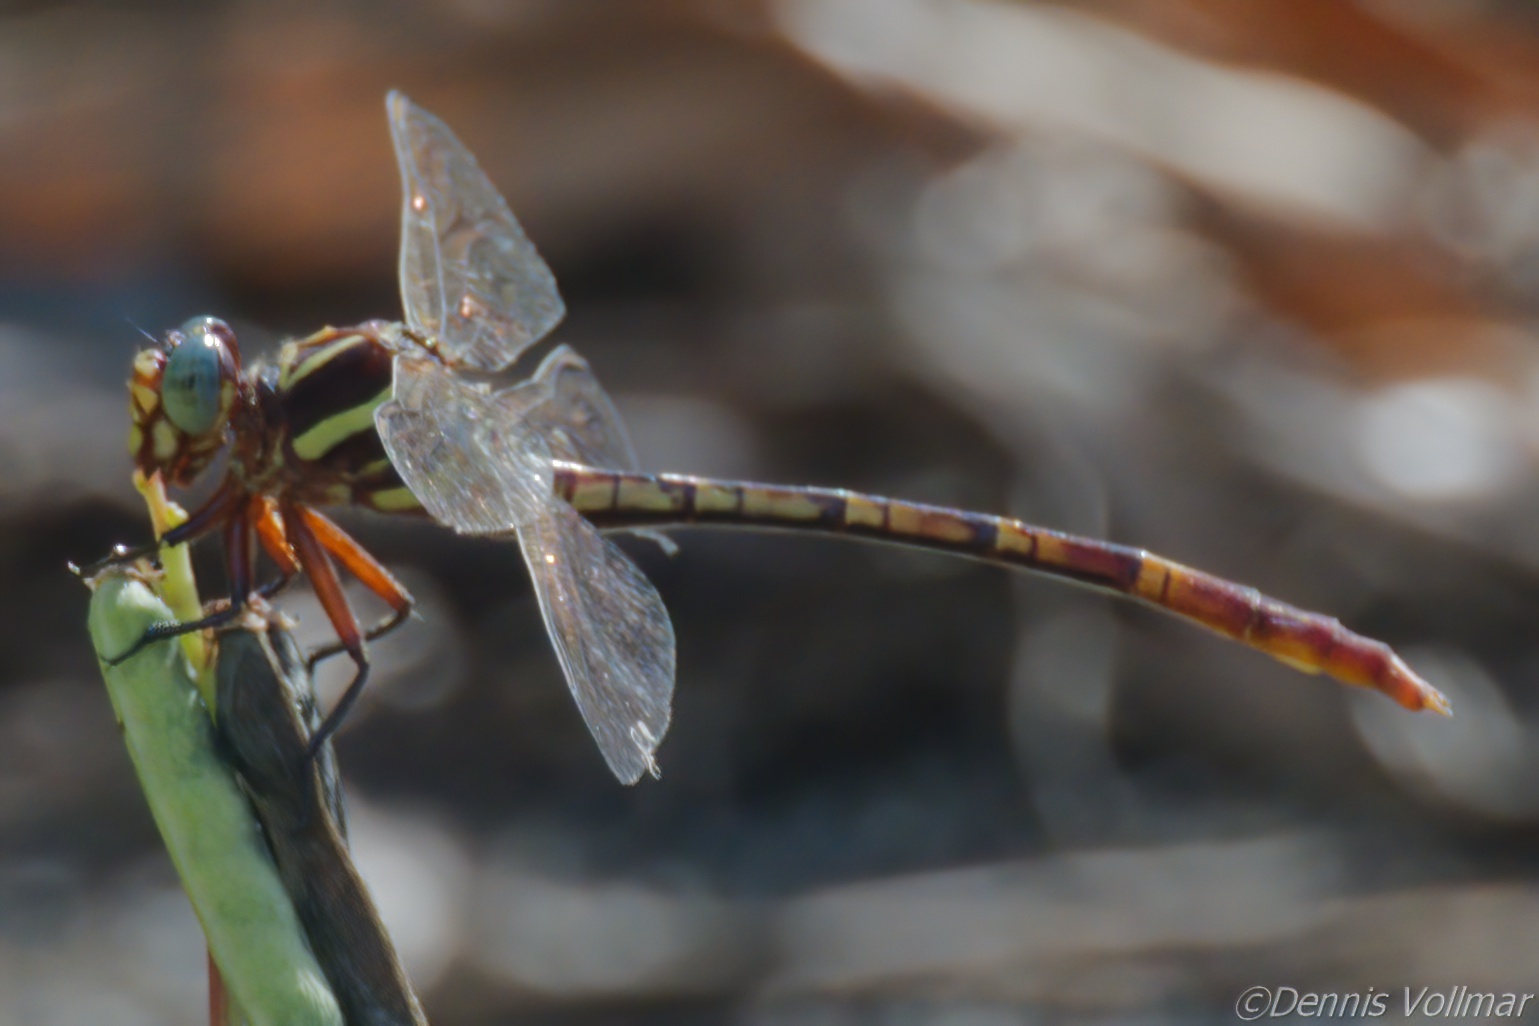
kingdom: Animalia
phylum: Arthropoda
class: Insecta
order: Odonata
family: Gomphidae
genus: Aphylla
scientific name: Aphylla williamsoni
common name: Two-striped forceptail
